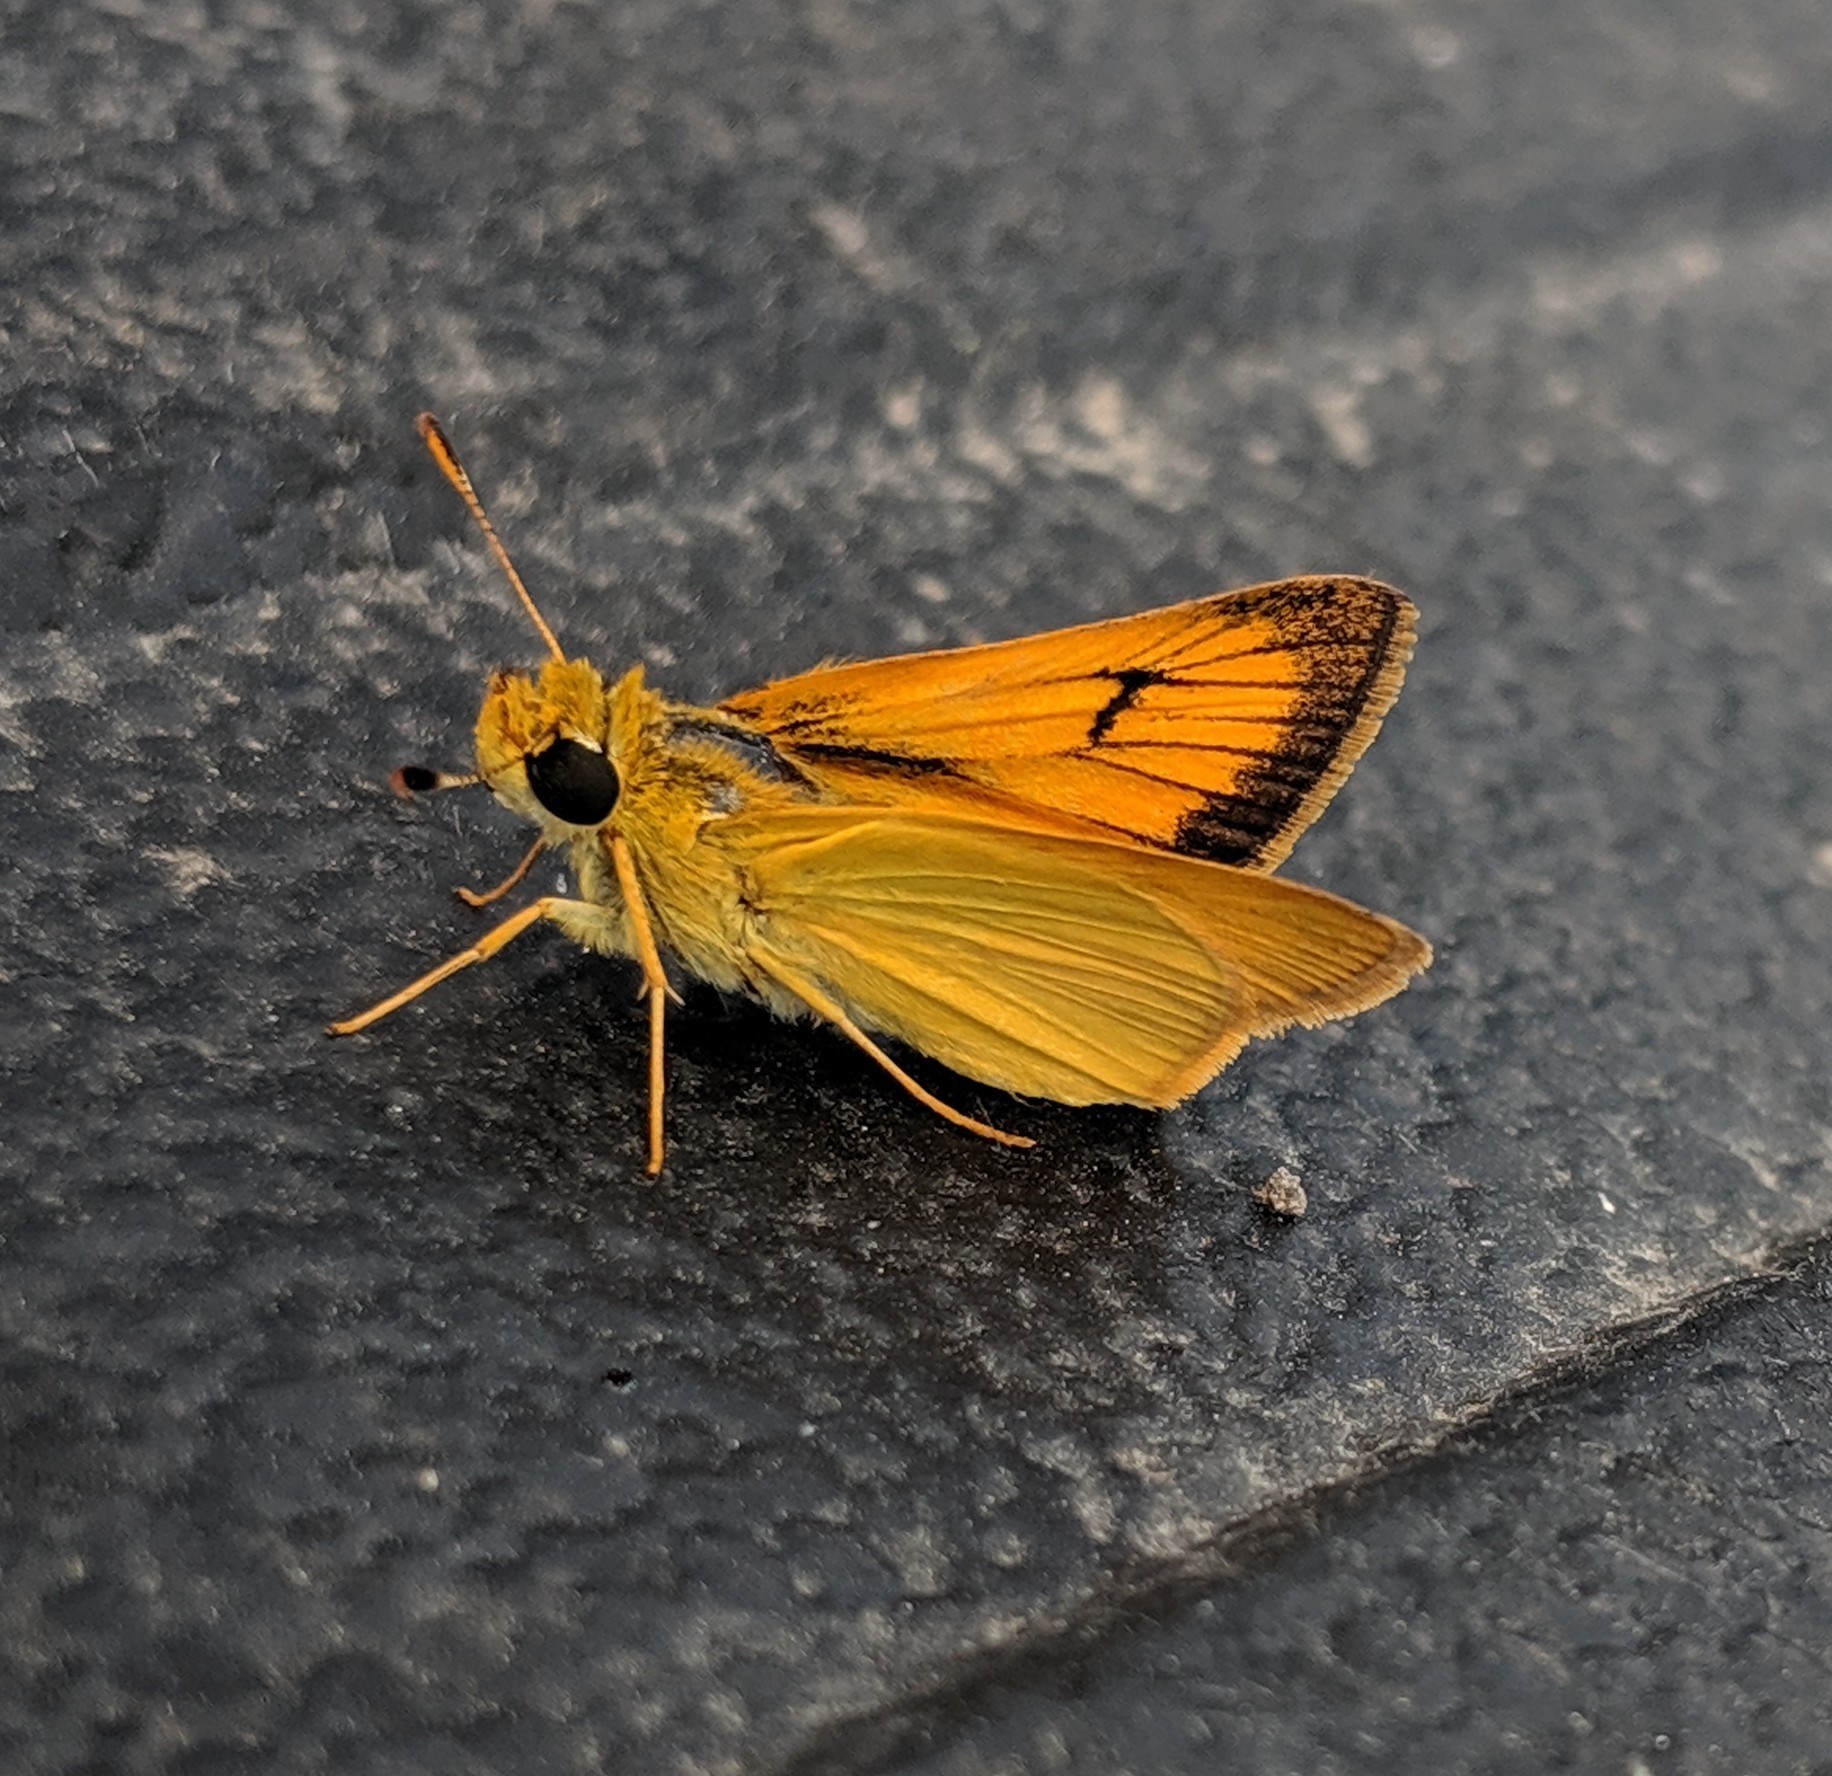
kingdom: Animalia
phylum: Arthropoda
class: Insecta
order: Lepidoptera
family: Hesperiidae
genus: Atrytone
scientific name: Atrytone delaware
